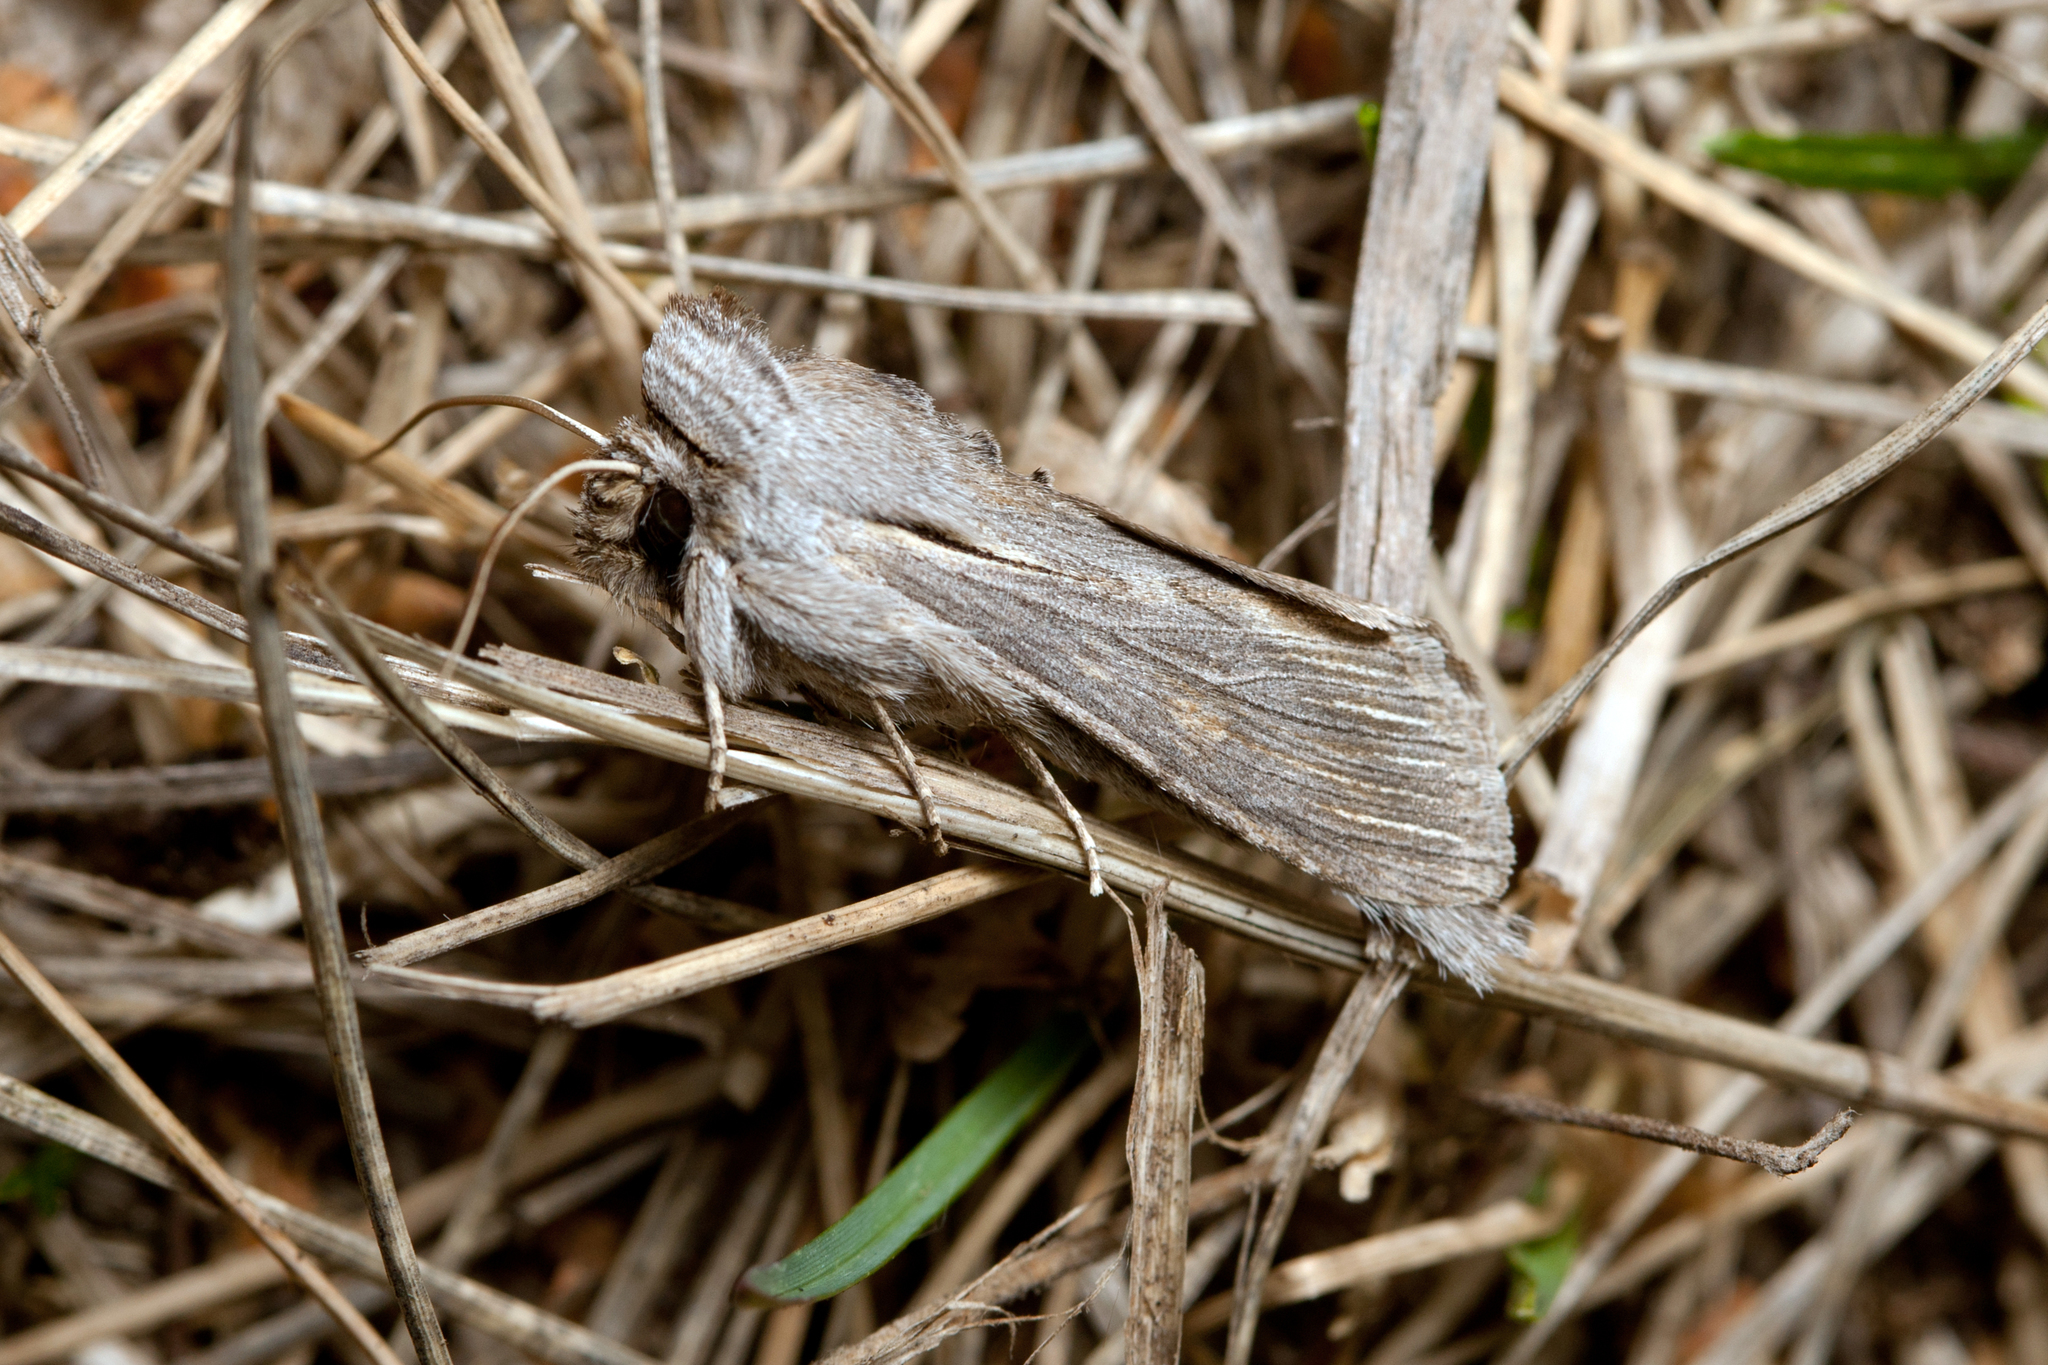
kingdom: Animalia
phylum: Arthropoda
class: Insecta
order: Lepidoptera
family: Noctuidae
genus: Cucullia
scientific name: Cucullia inderiensis
